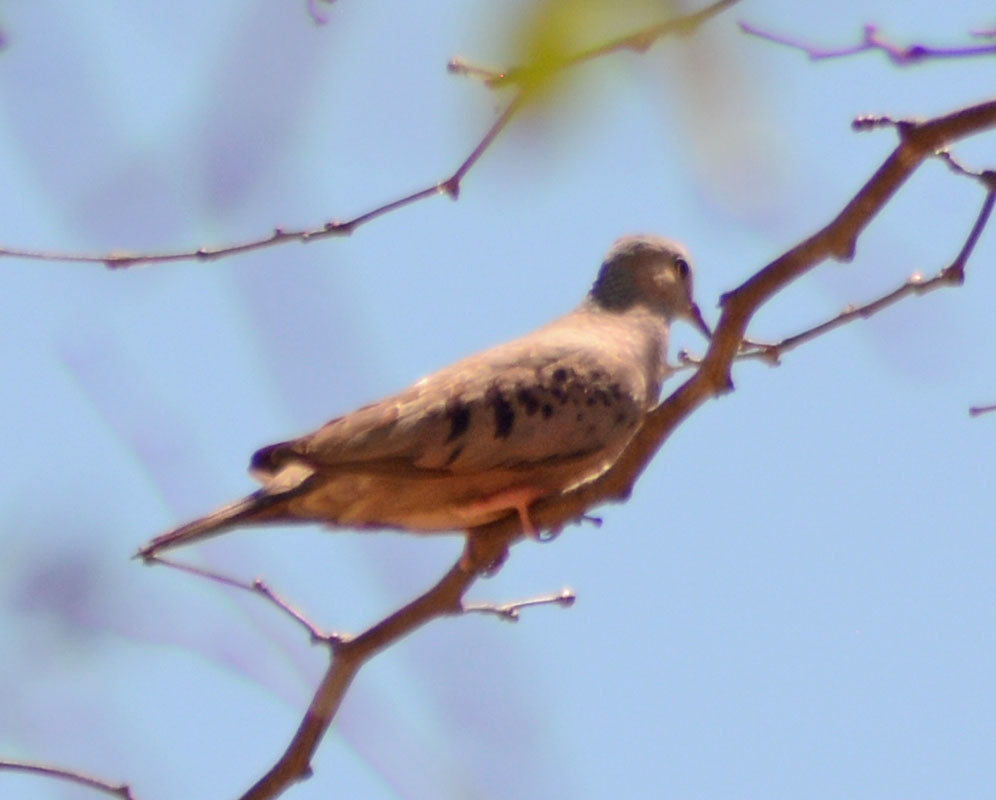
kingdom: Animalia
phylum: Chordata
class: Aves
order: Columbiformes
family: Columbidae
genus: Columbina
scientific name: Columbina passerina
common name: Common ground-dove
